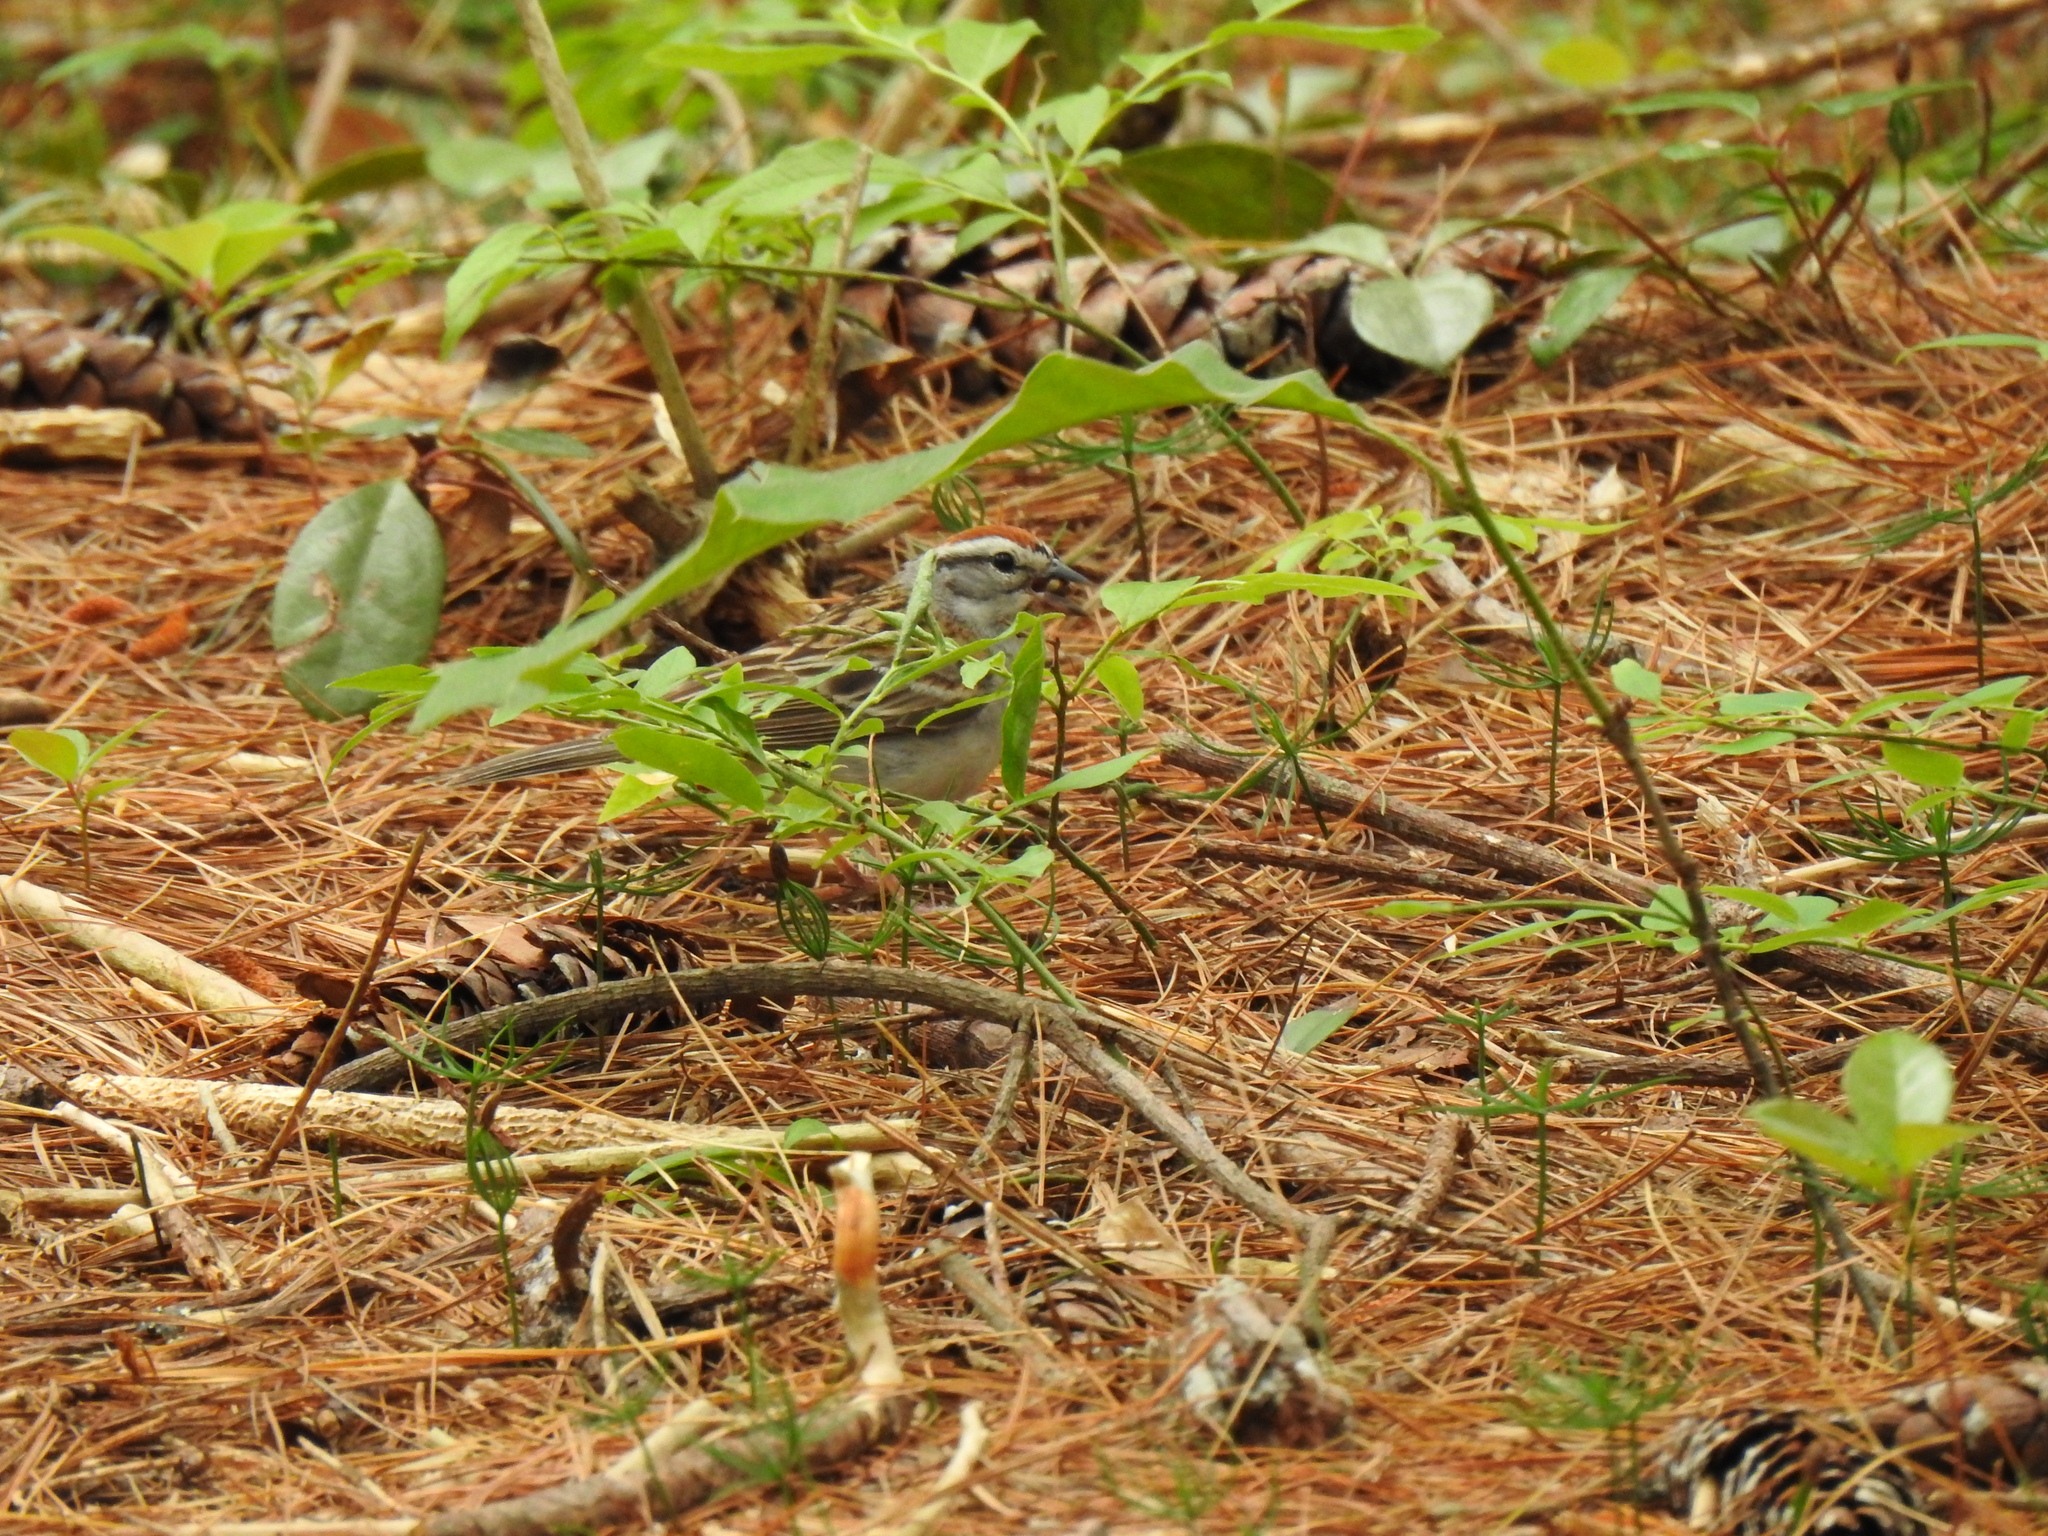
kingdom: Animalia
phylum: Chordata
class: Aves
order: Passeriformes
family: Passerellidae
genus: Spizella
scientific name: Spizella passerina
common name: Chipping sparrow
